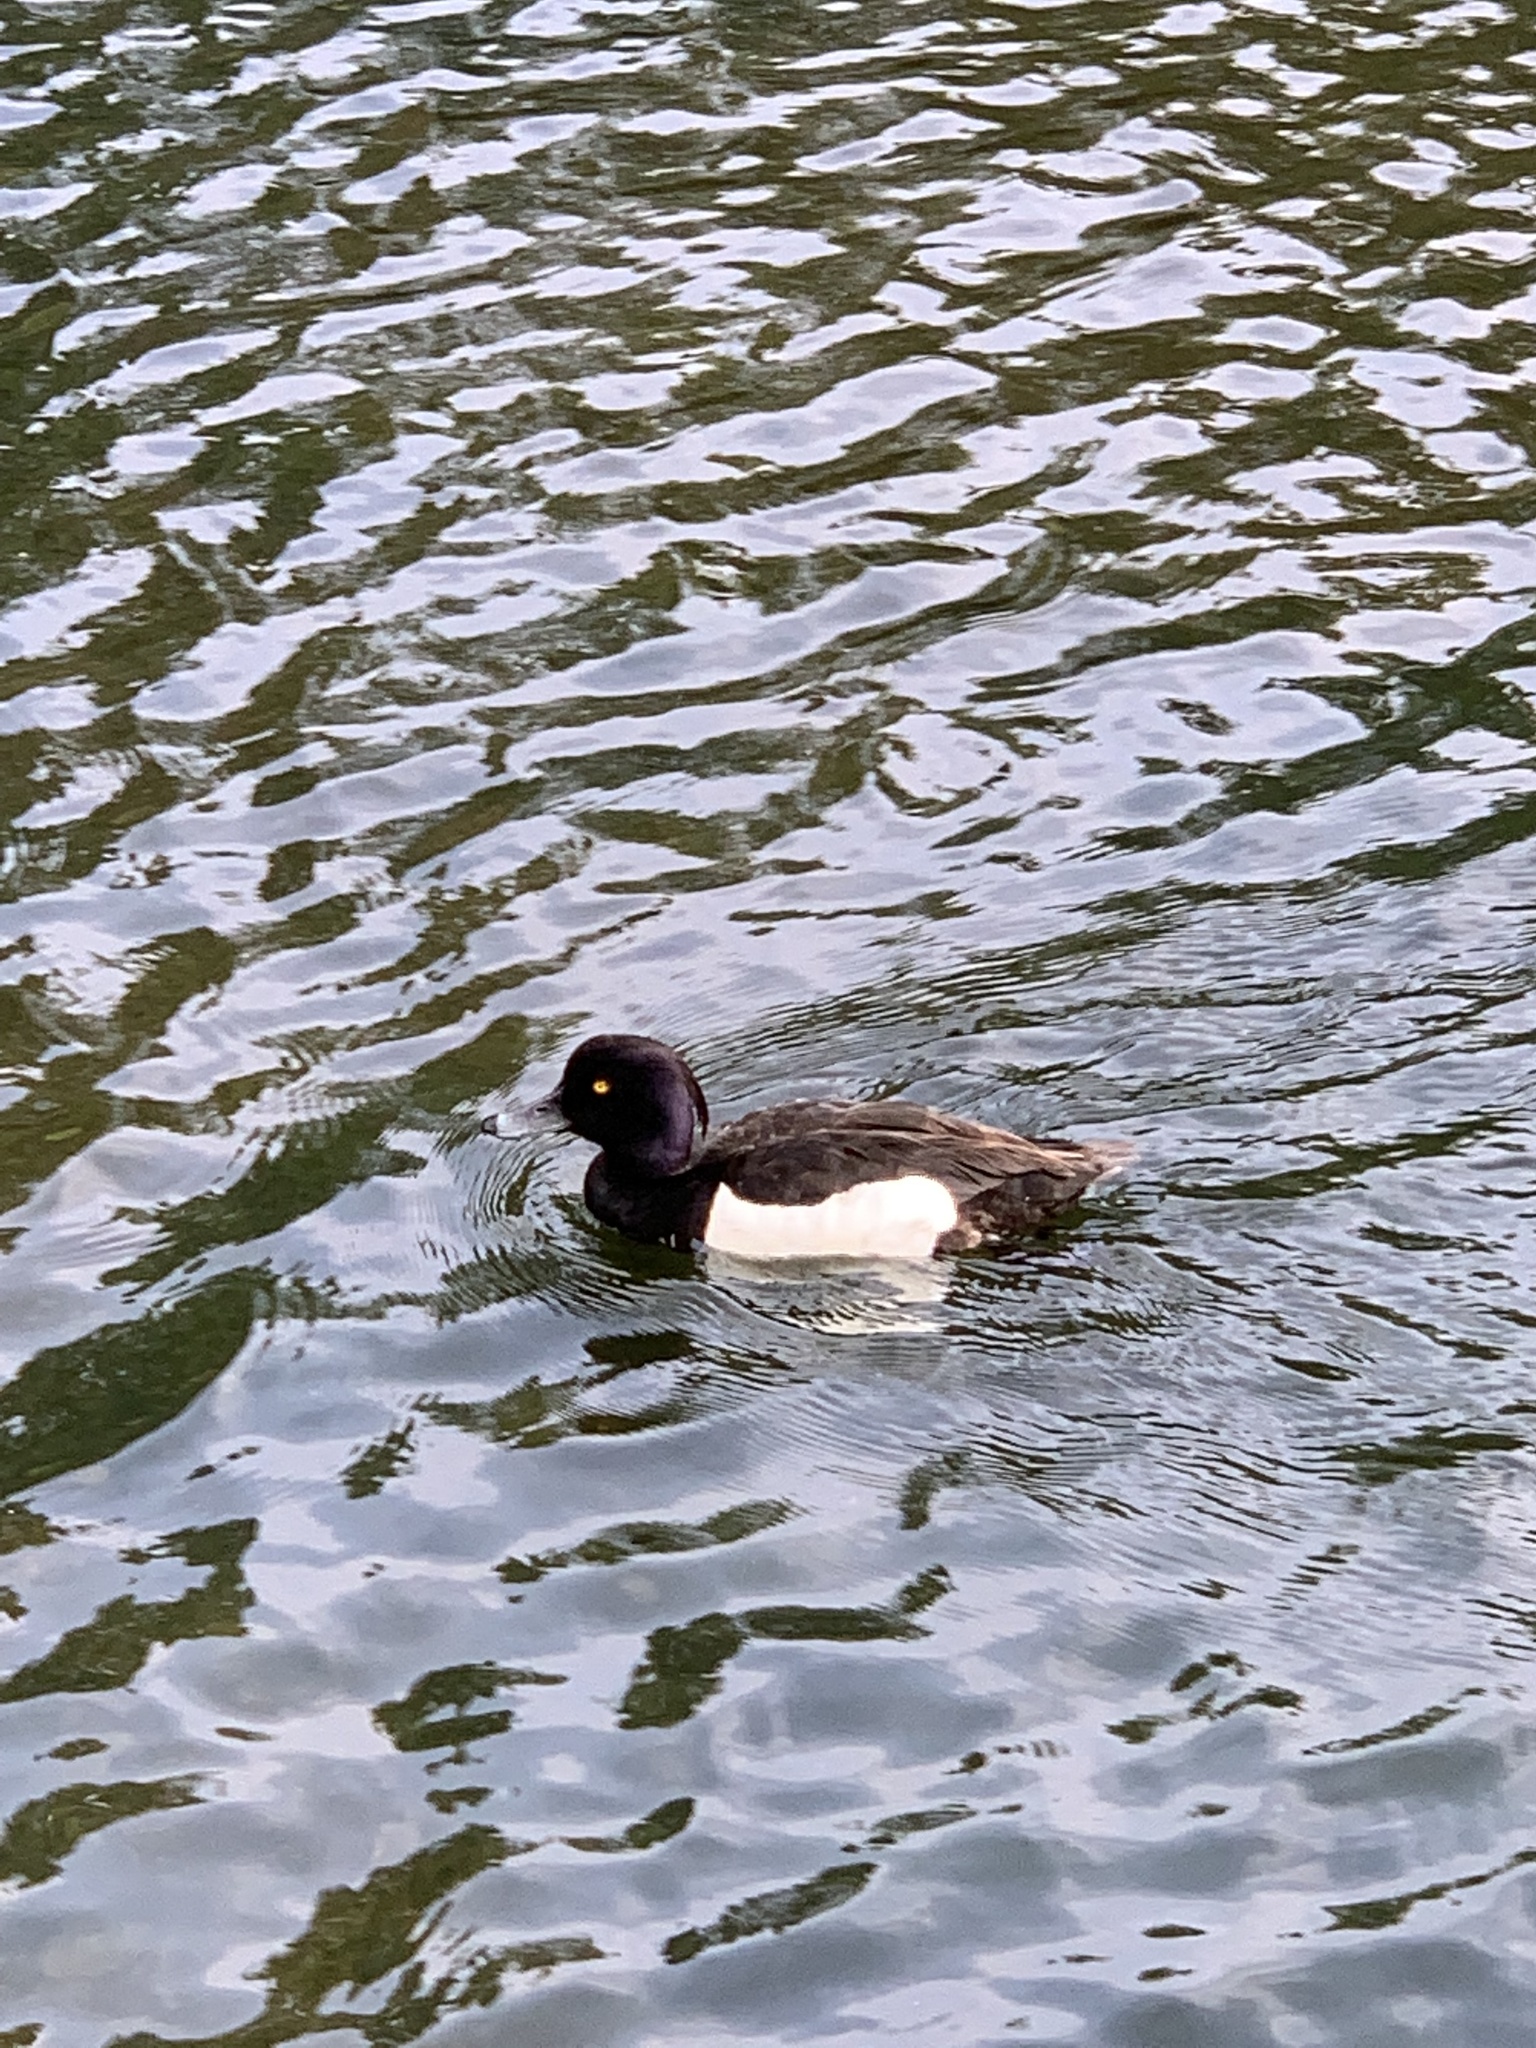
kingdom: Animalia
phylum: Chordata
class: Aves
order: Anseriformes
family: Anatidae
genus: Aythya
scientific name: Aythya fuligula
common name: Tufted duck
